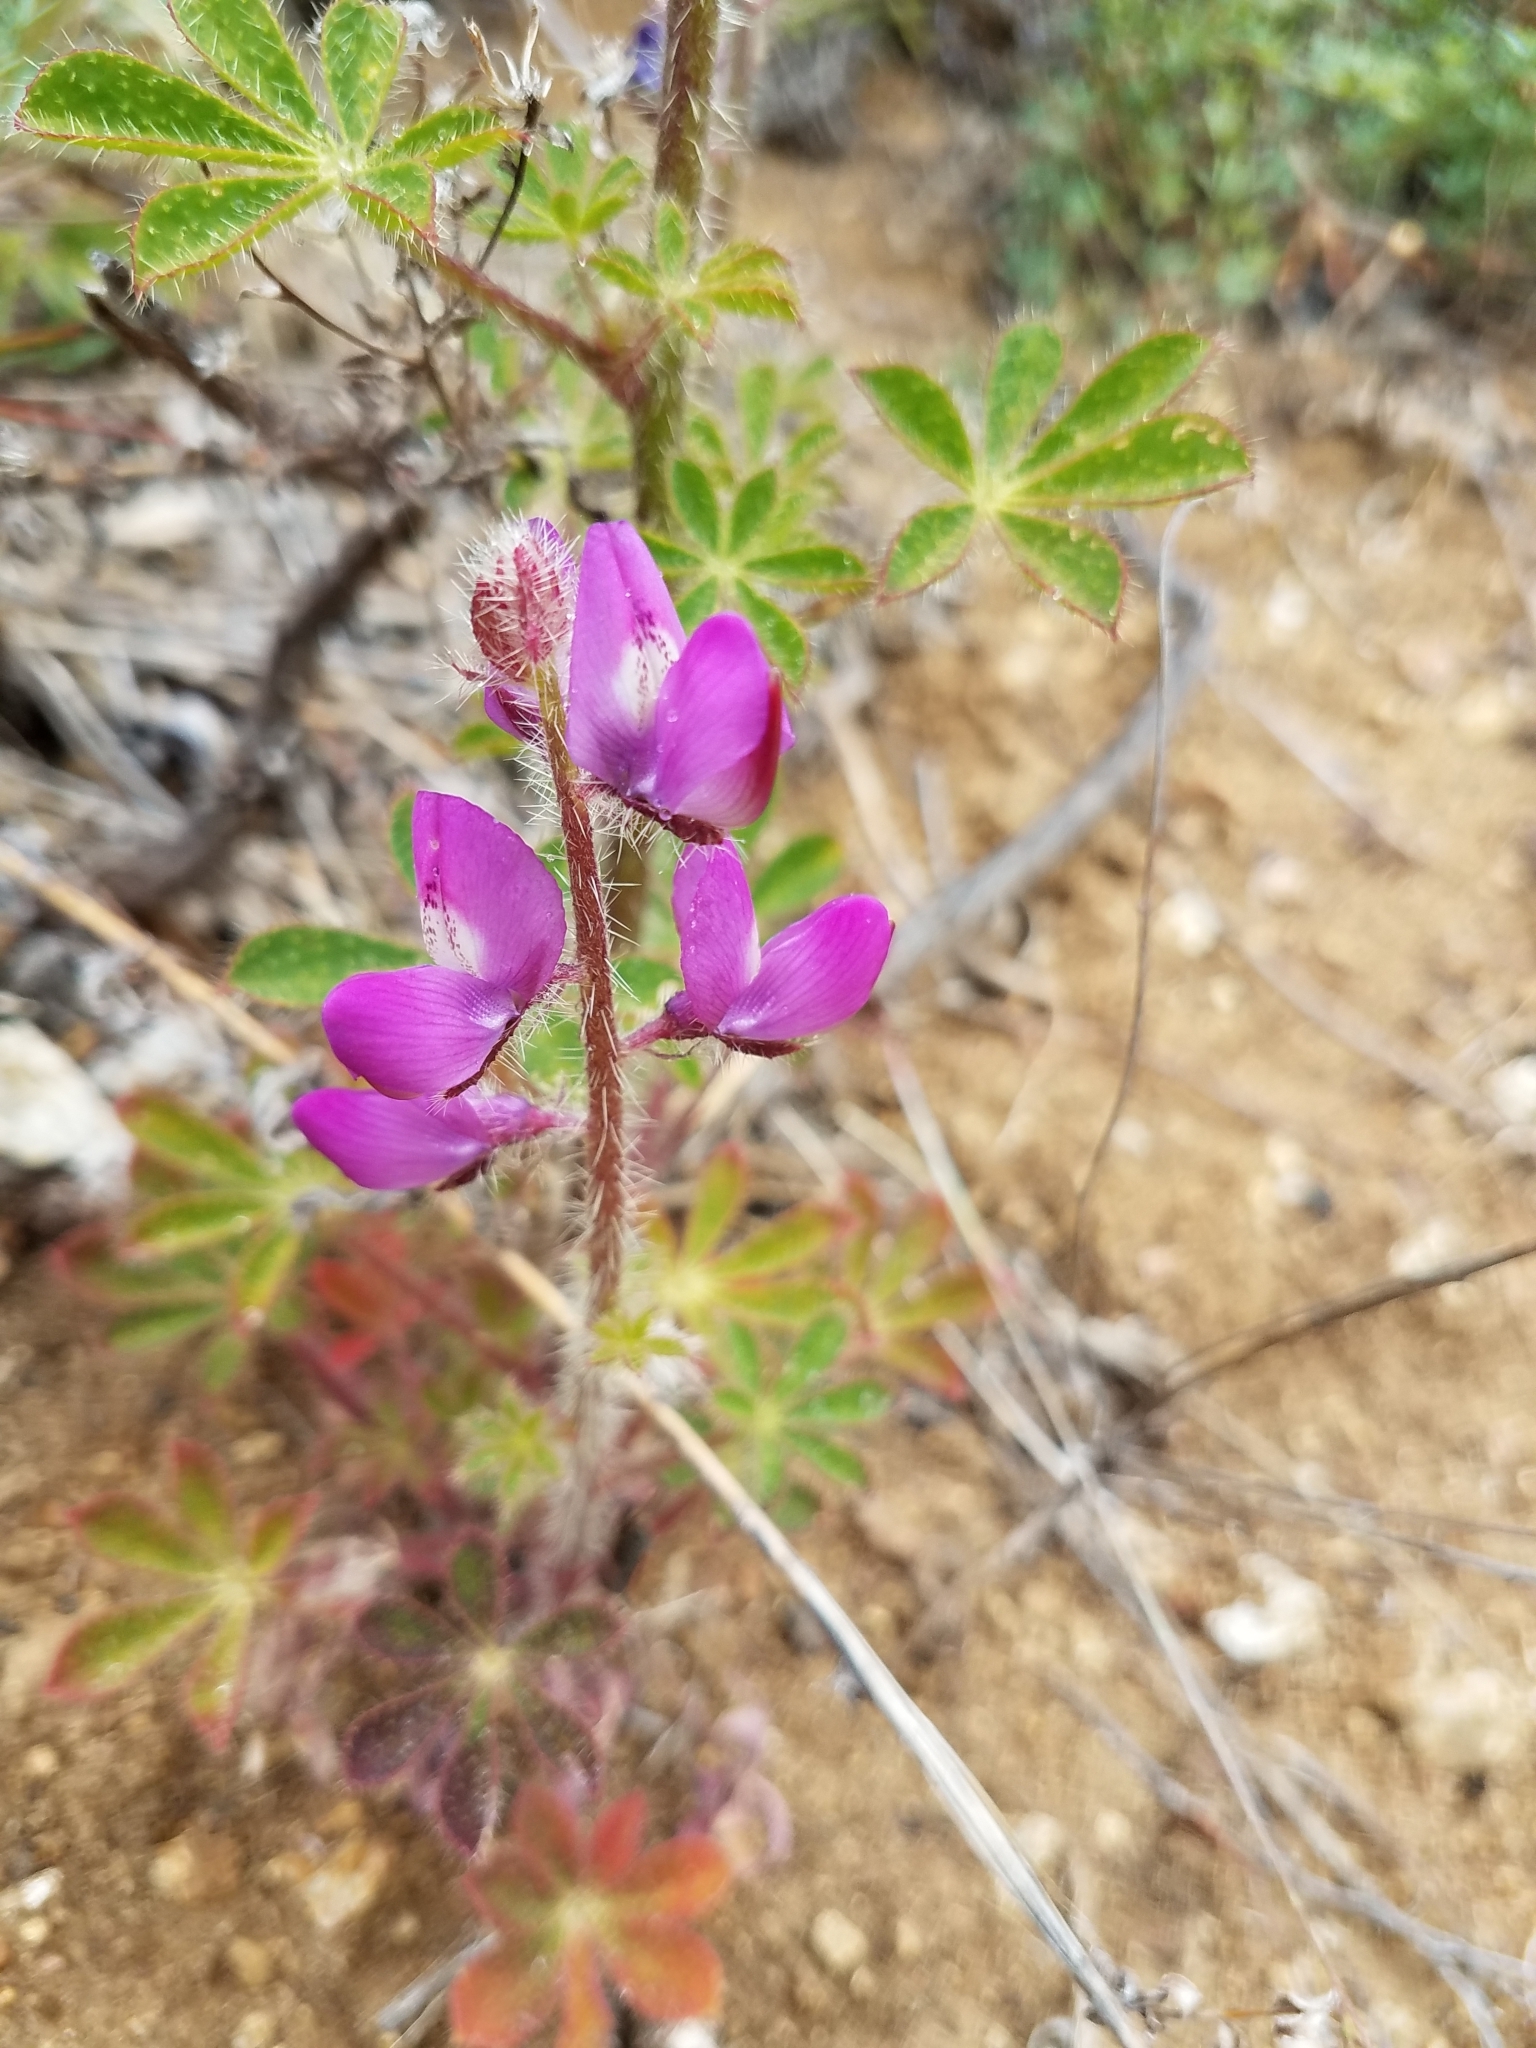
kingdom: Plantae
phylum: Tracheophyta
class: Magnoliopsida
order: Fabales
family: Fabaceae
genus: Lupinus
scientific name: Lupinus hirsutissimus
